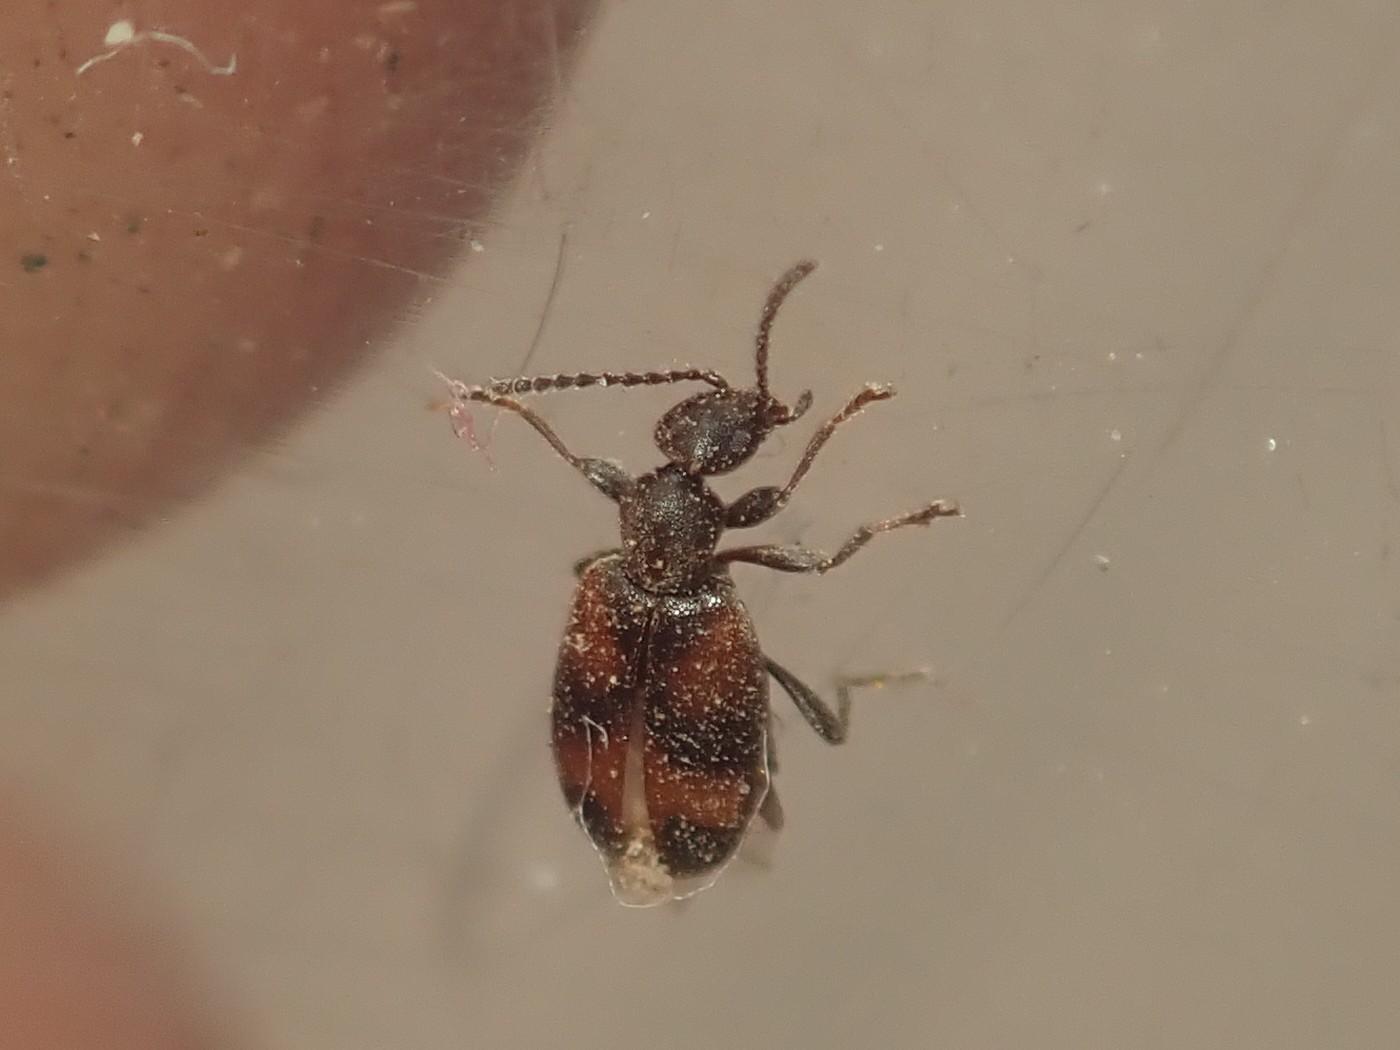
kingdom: Animalia
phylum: Arthropoda
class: Insecta
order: Coleoptera
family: Anthicidae
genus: Anthicus
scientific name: Anthicus antherinus
